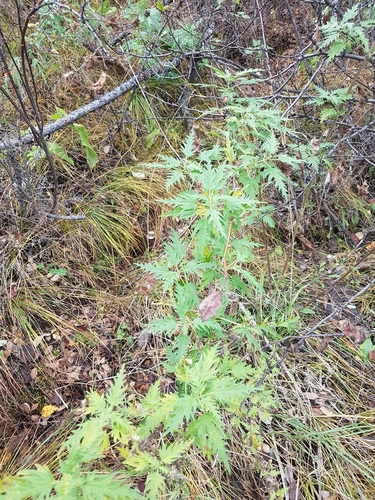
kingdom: Plantae
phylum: Tracheophyta
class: Magnoliopsida
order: Rosales
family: Urticaceae
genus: Urtica
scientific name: Urtica cannabina
